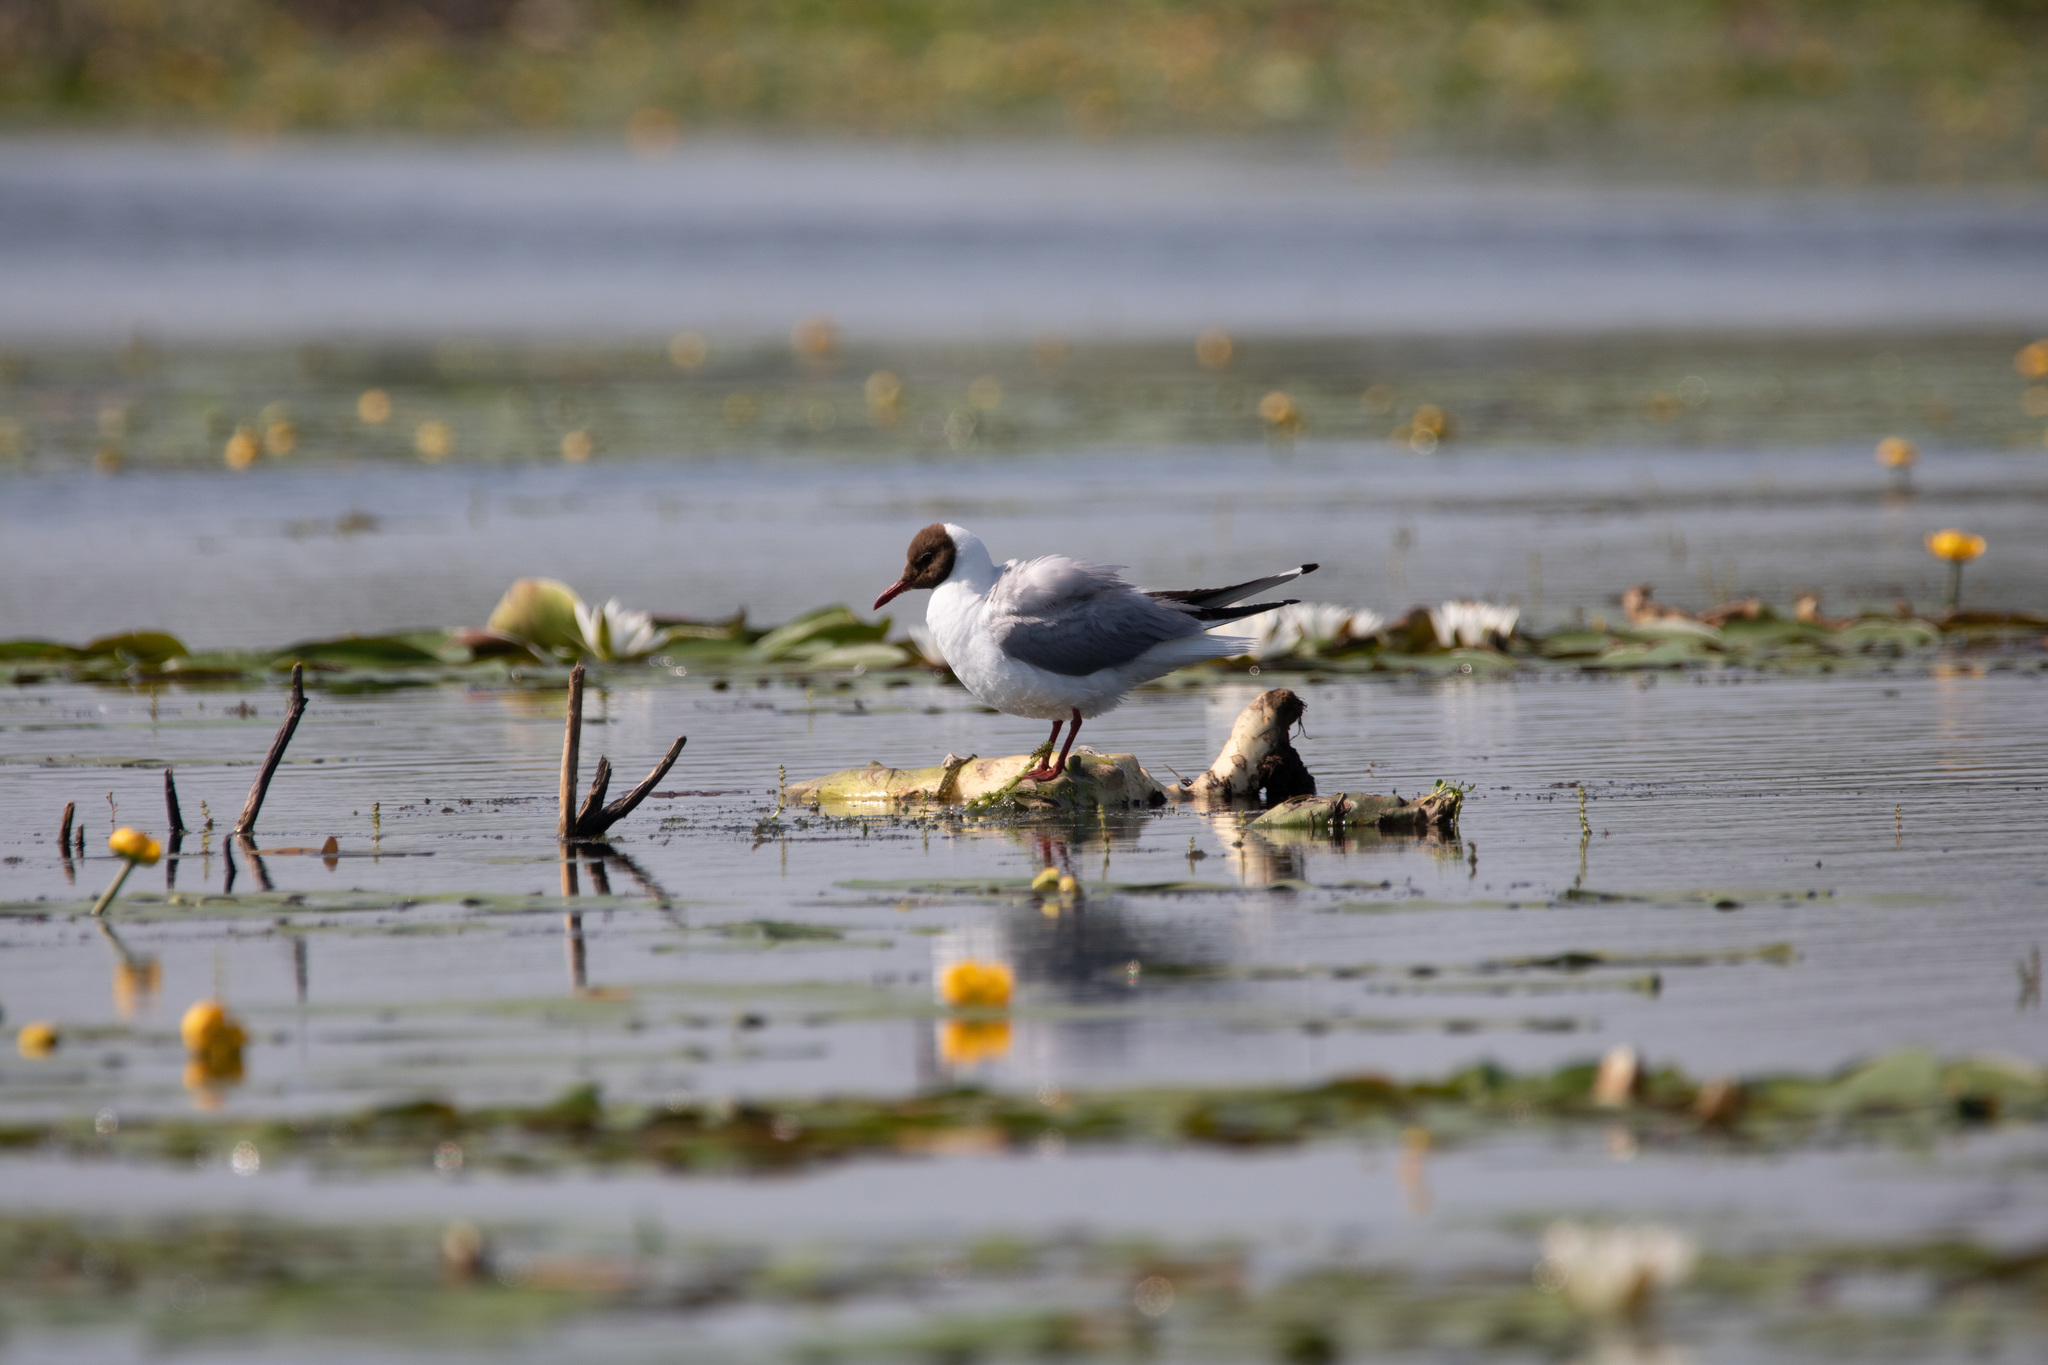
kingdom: Animalia
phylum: Chordata
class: Aves
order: Charadriiformes
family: Laridae
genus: Chroicocephalus
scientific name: Chroicocephalus ridibundus
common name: Black-headed gull
